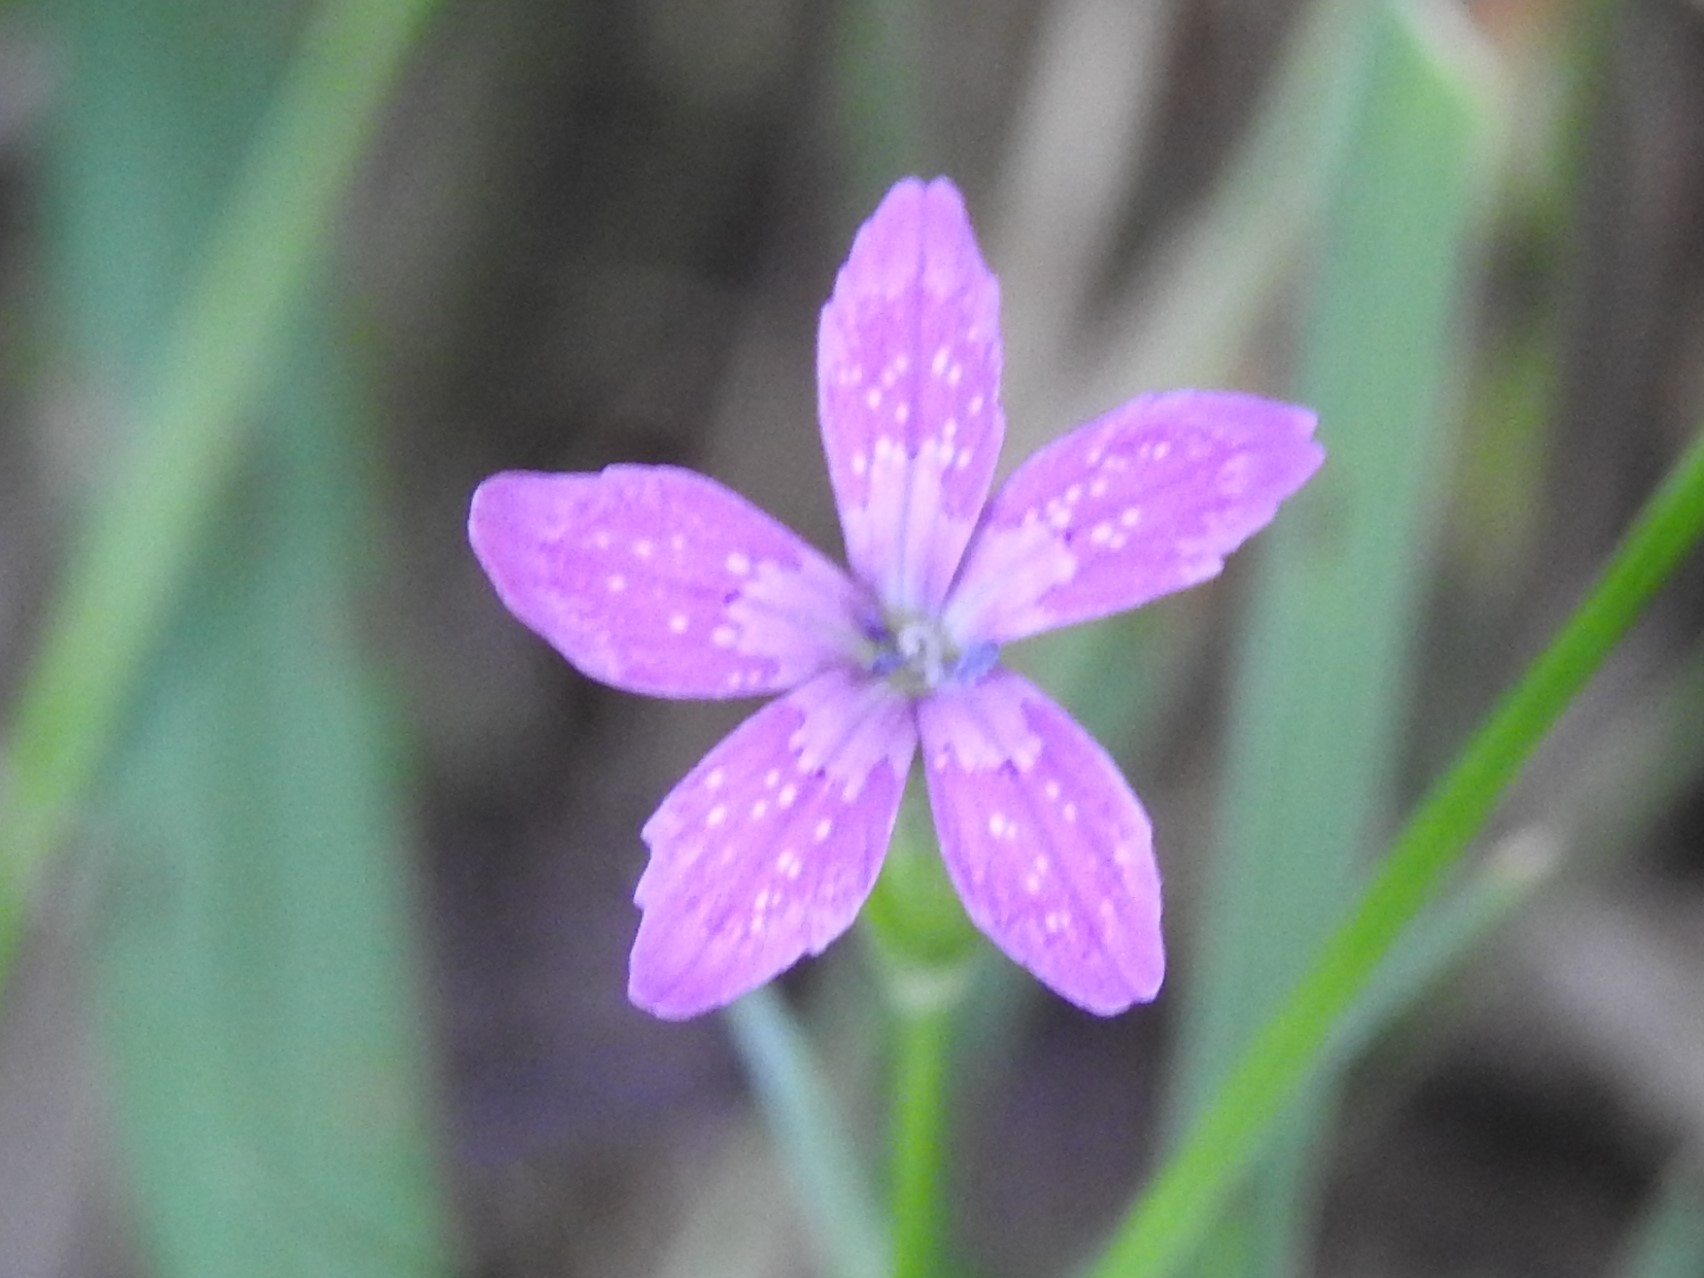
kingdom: Plantae
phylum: Tracheophyta
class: Magnoliopsida
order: Caryophyllales
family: Caryophyllaceae
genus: Dianthus
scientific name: Dianthus armeria
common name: Deptford pink
